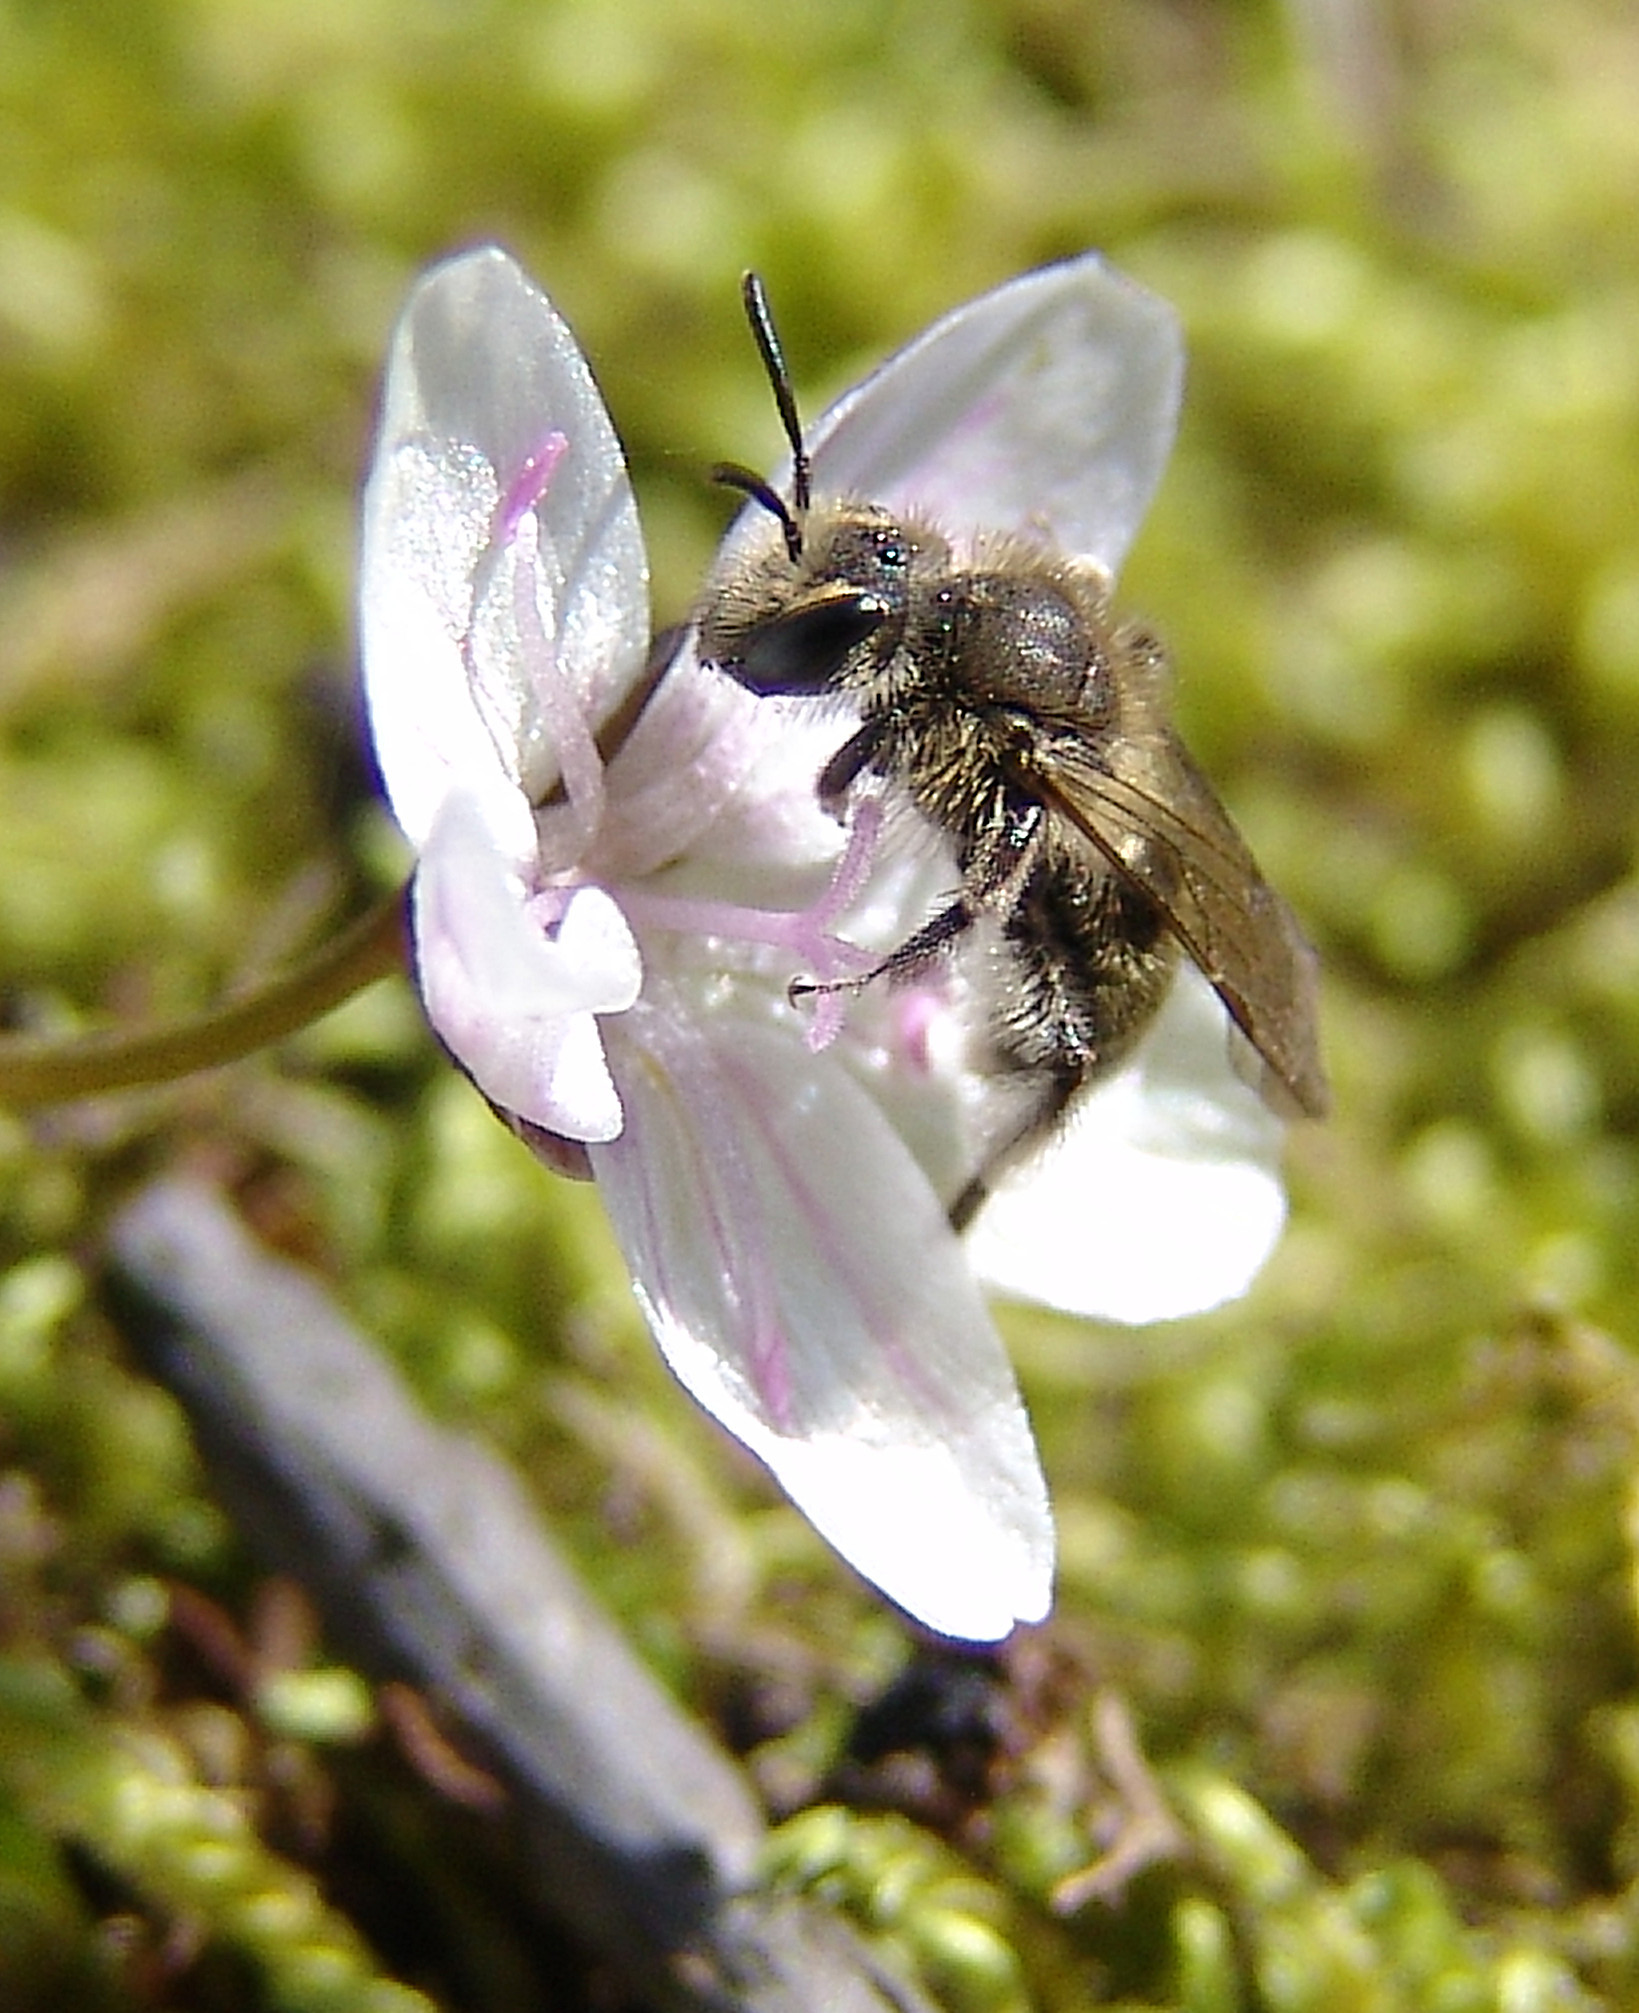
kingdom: Animalia
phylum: Arthropoda
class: Insecta
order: Hymenoptera
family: Andrenidae
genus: Andrena
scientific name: Andrena erigeniae
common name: Spring beauty miner
